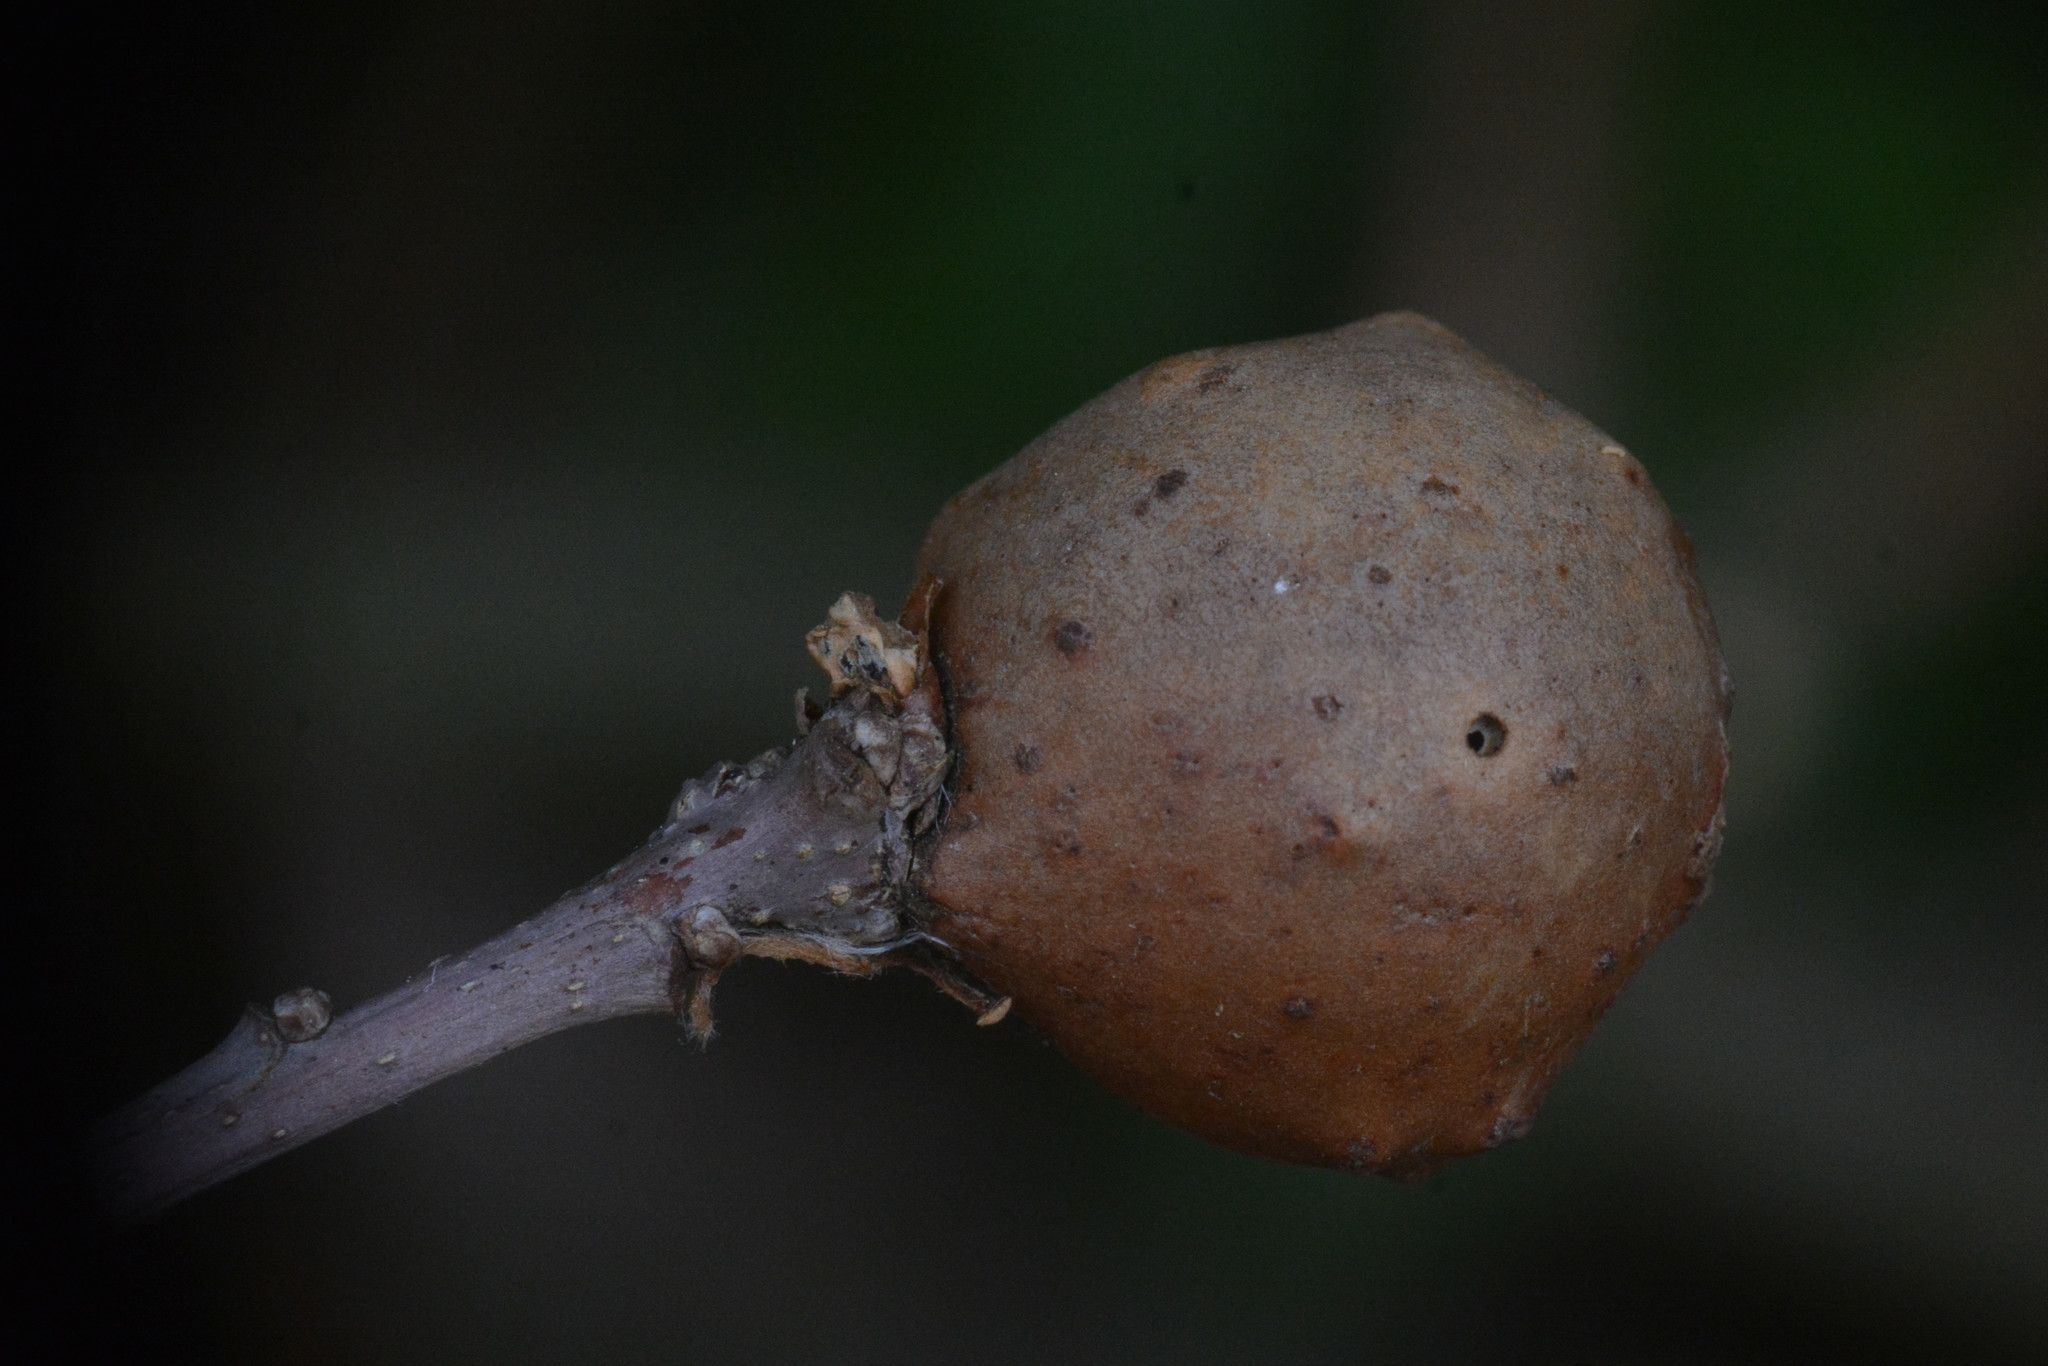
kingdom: Animalia
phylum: Arthropoda
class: Insecta
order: Hymenoptera
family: Cynipidae
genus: Andricus
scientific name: Andricus kollari
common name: Marble gall
